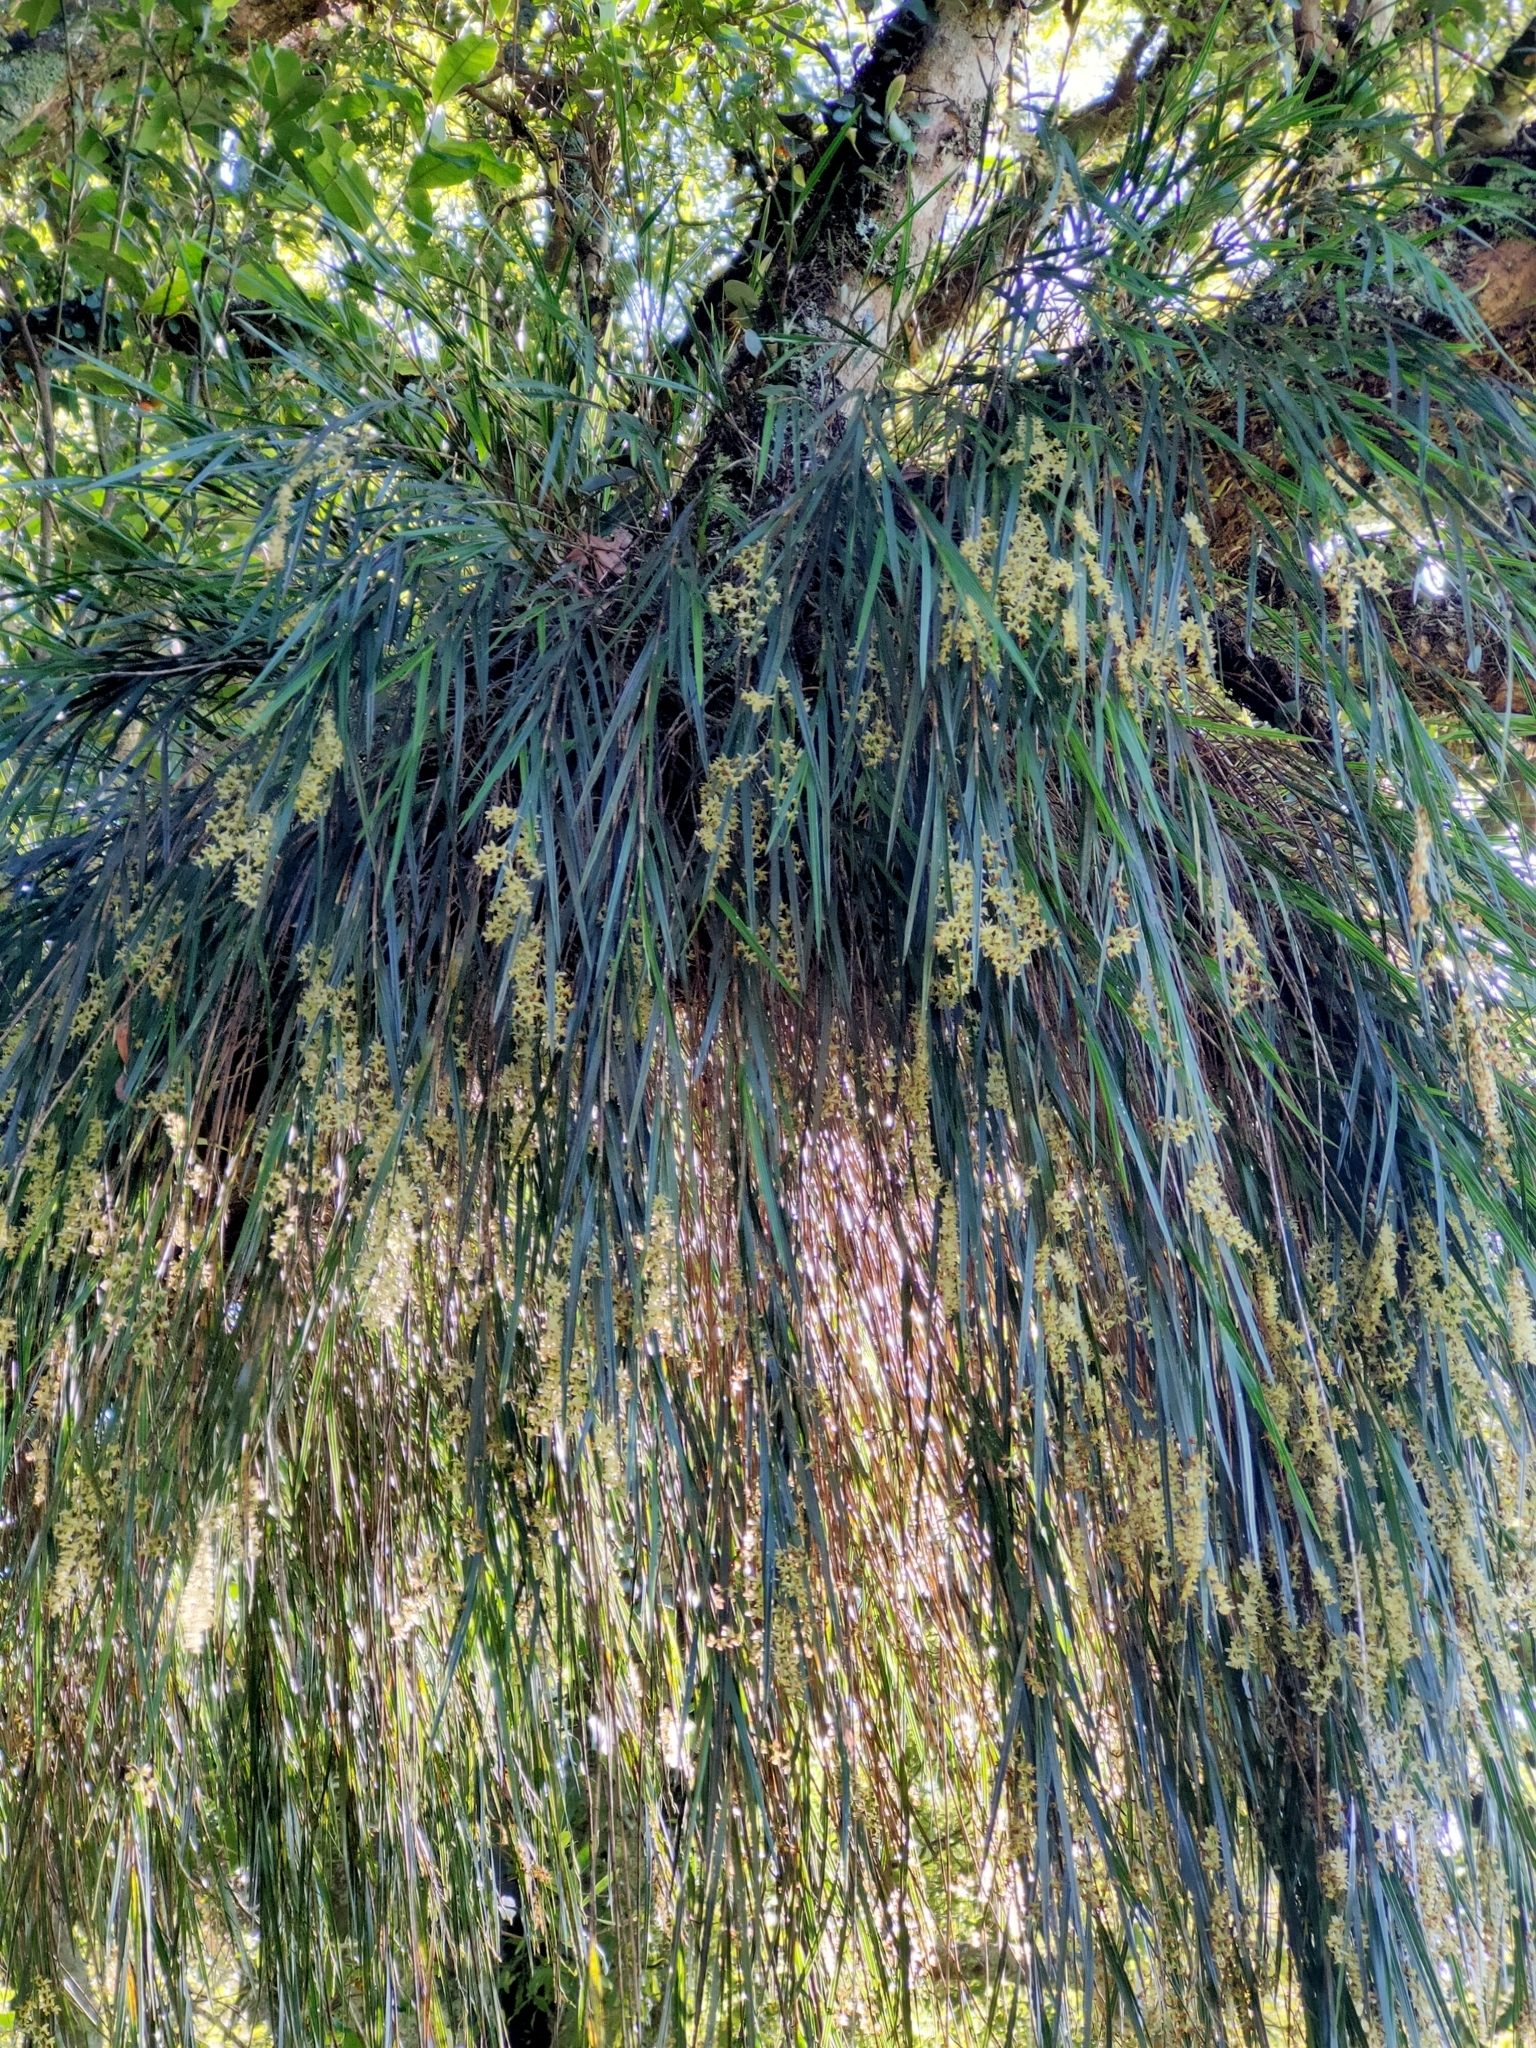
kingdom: Plantae
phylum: Tracheophyta
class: Liliopsida
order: Asparagales
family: Orchidaceae
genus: Earina
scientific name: Earina mucronata
